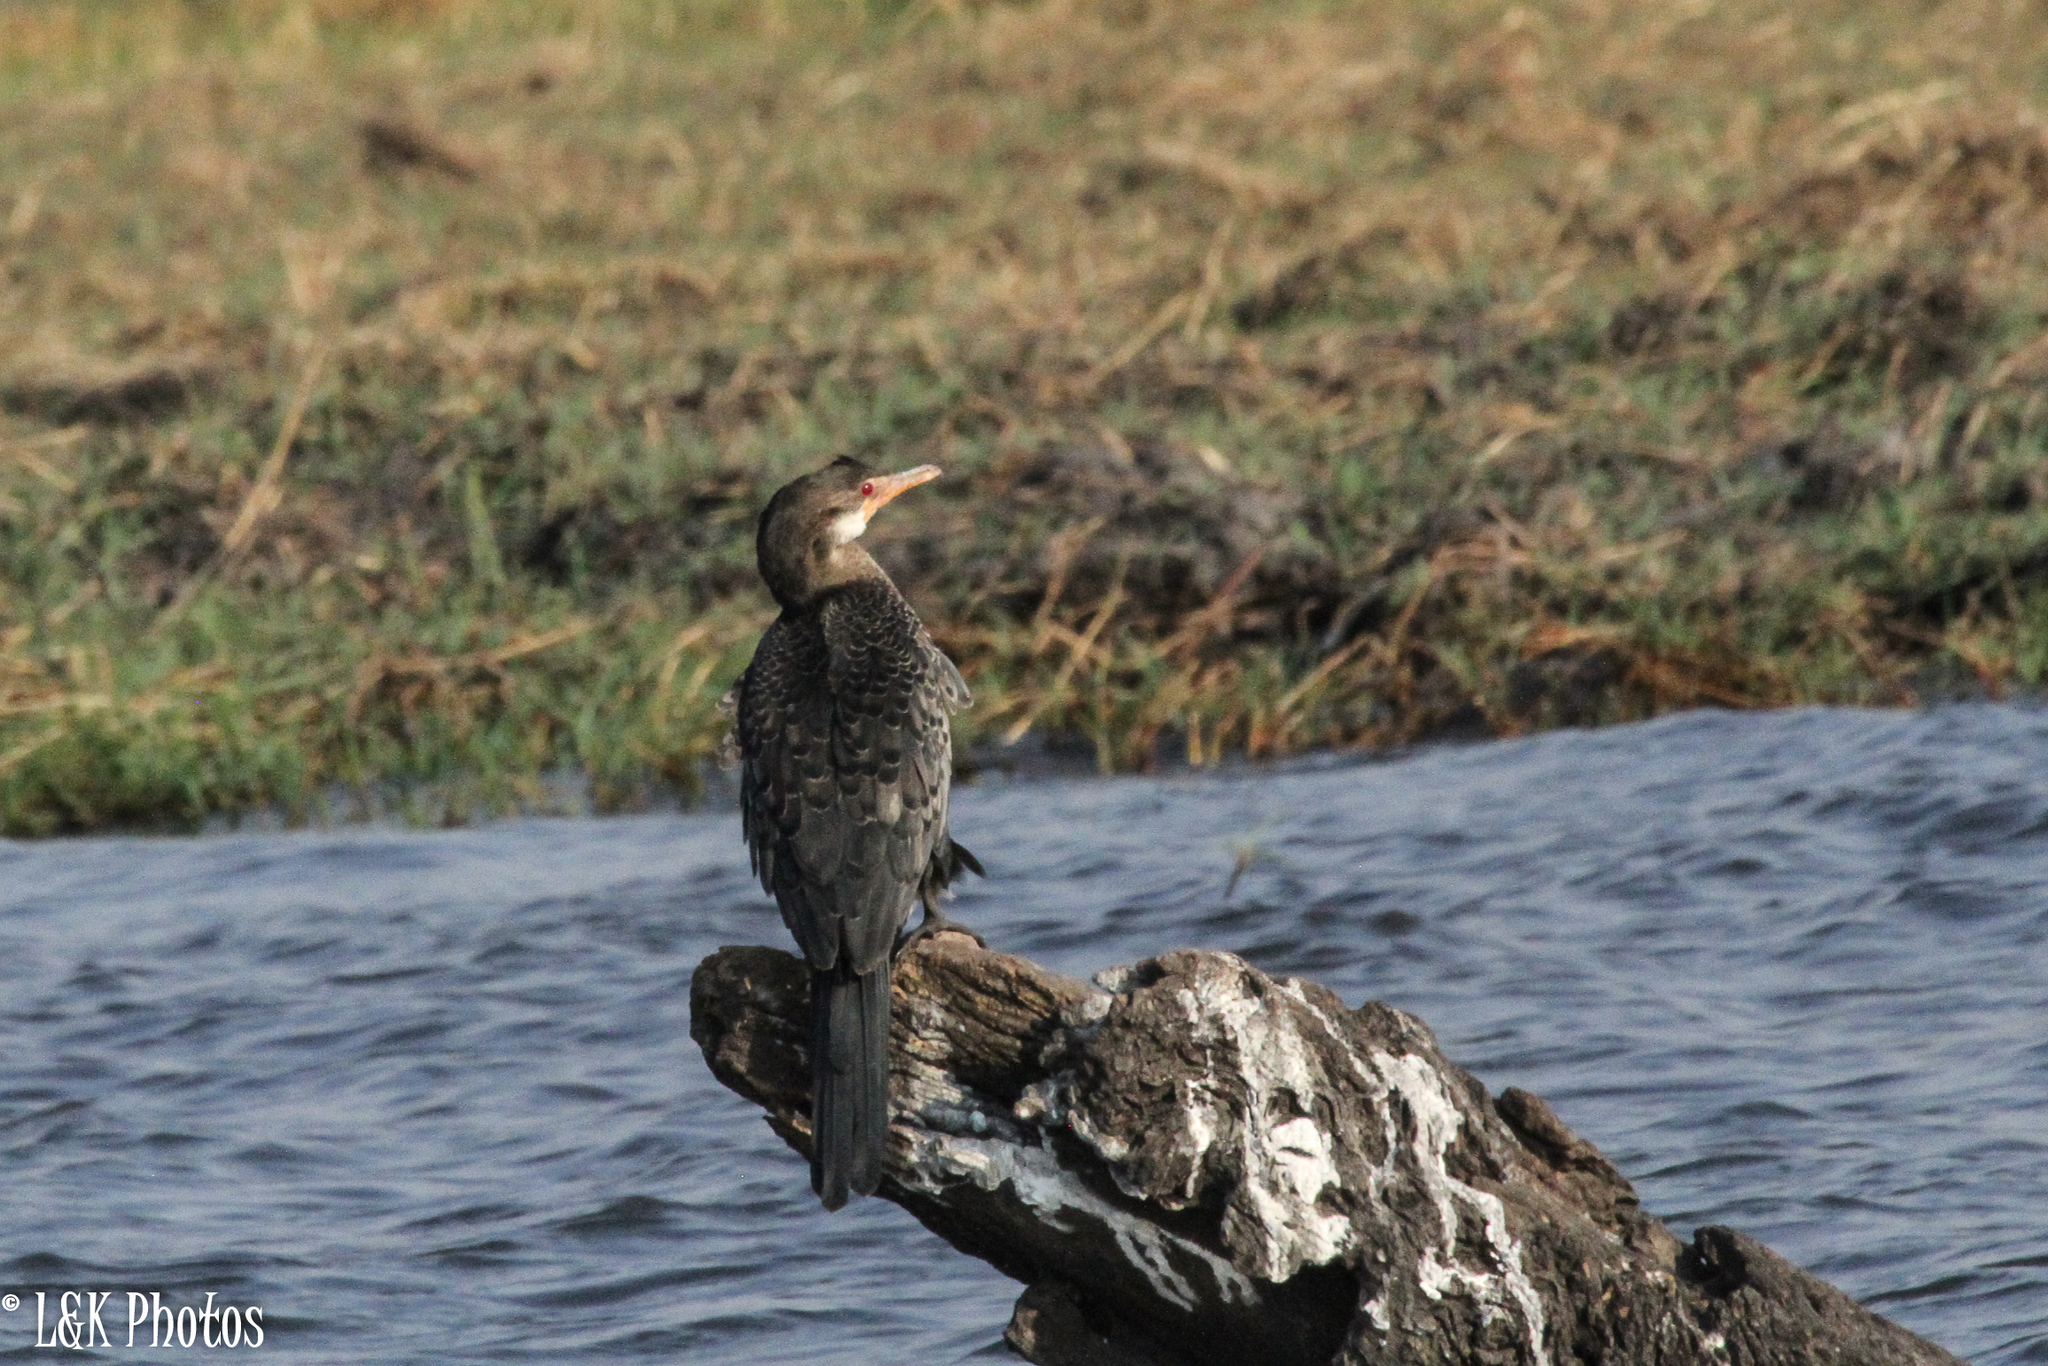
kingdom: Animalia
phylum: Chordata
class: Aves
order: Suliformes
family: Phalacrocoracidae
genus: Microcarbo
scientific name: Microcarbo africanus
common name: Long-tailed cormorant
